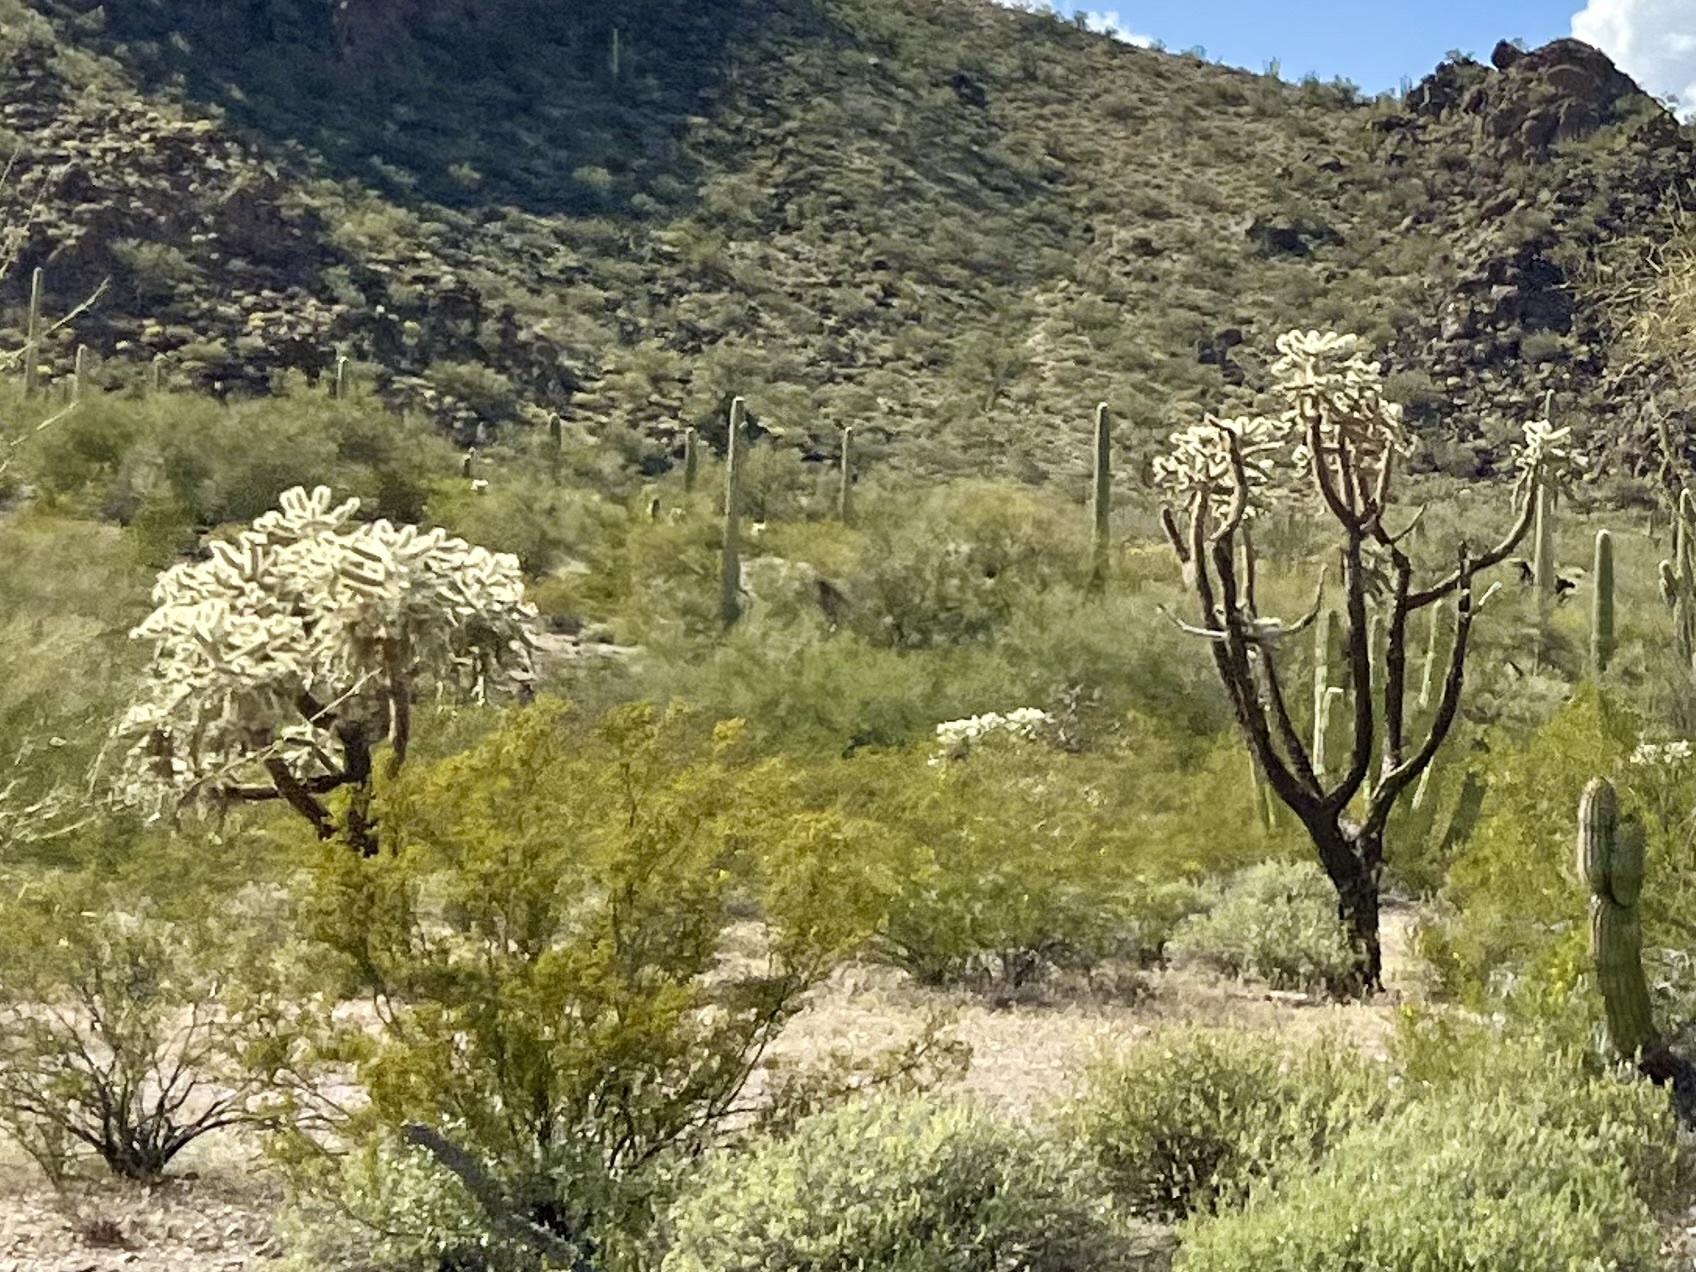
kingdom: Plantae
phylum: Tracheophyta
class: Magnoliopsida
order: Caryophyllales
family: Cactaceae
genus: Cylindropuntia
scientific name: Cylindropuntia fulgida
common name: Jumping cholla
